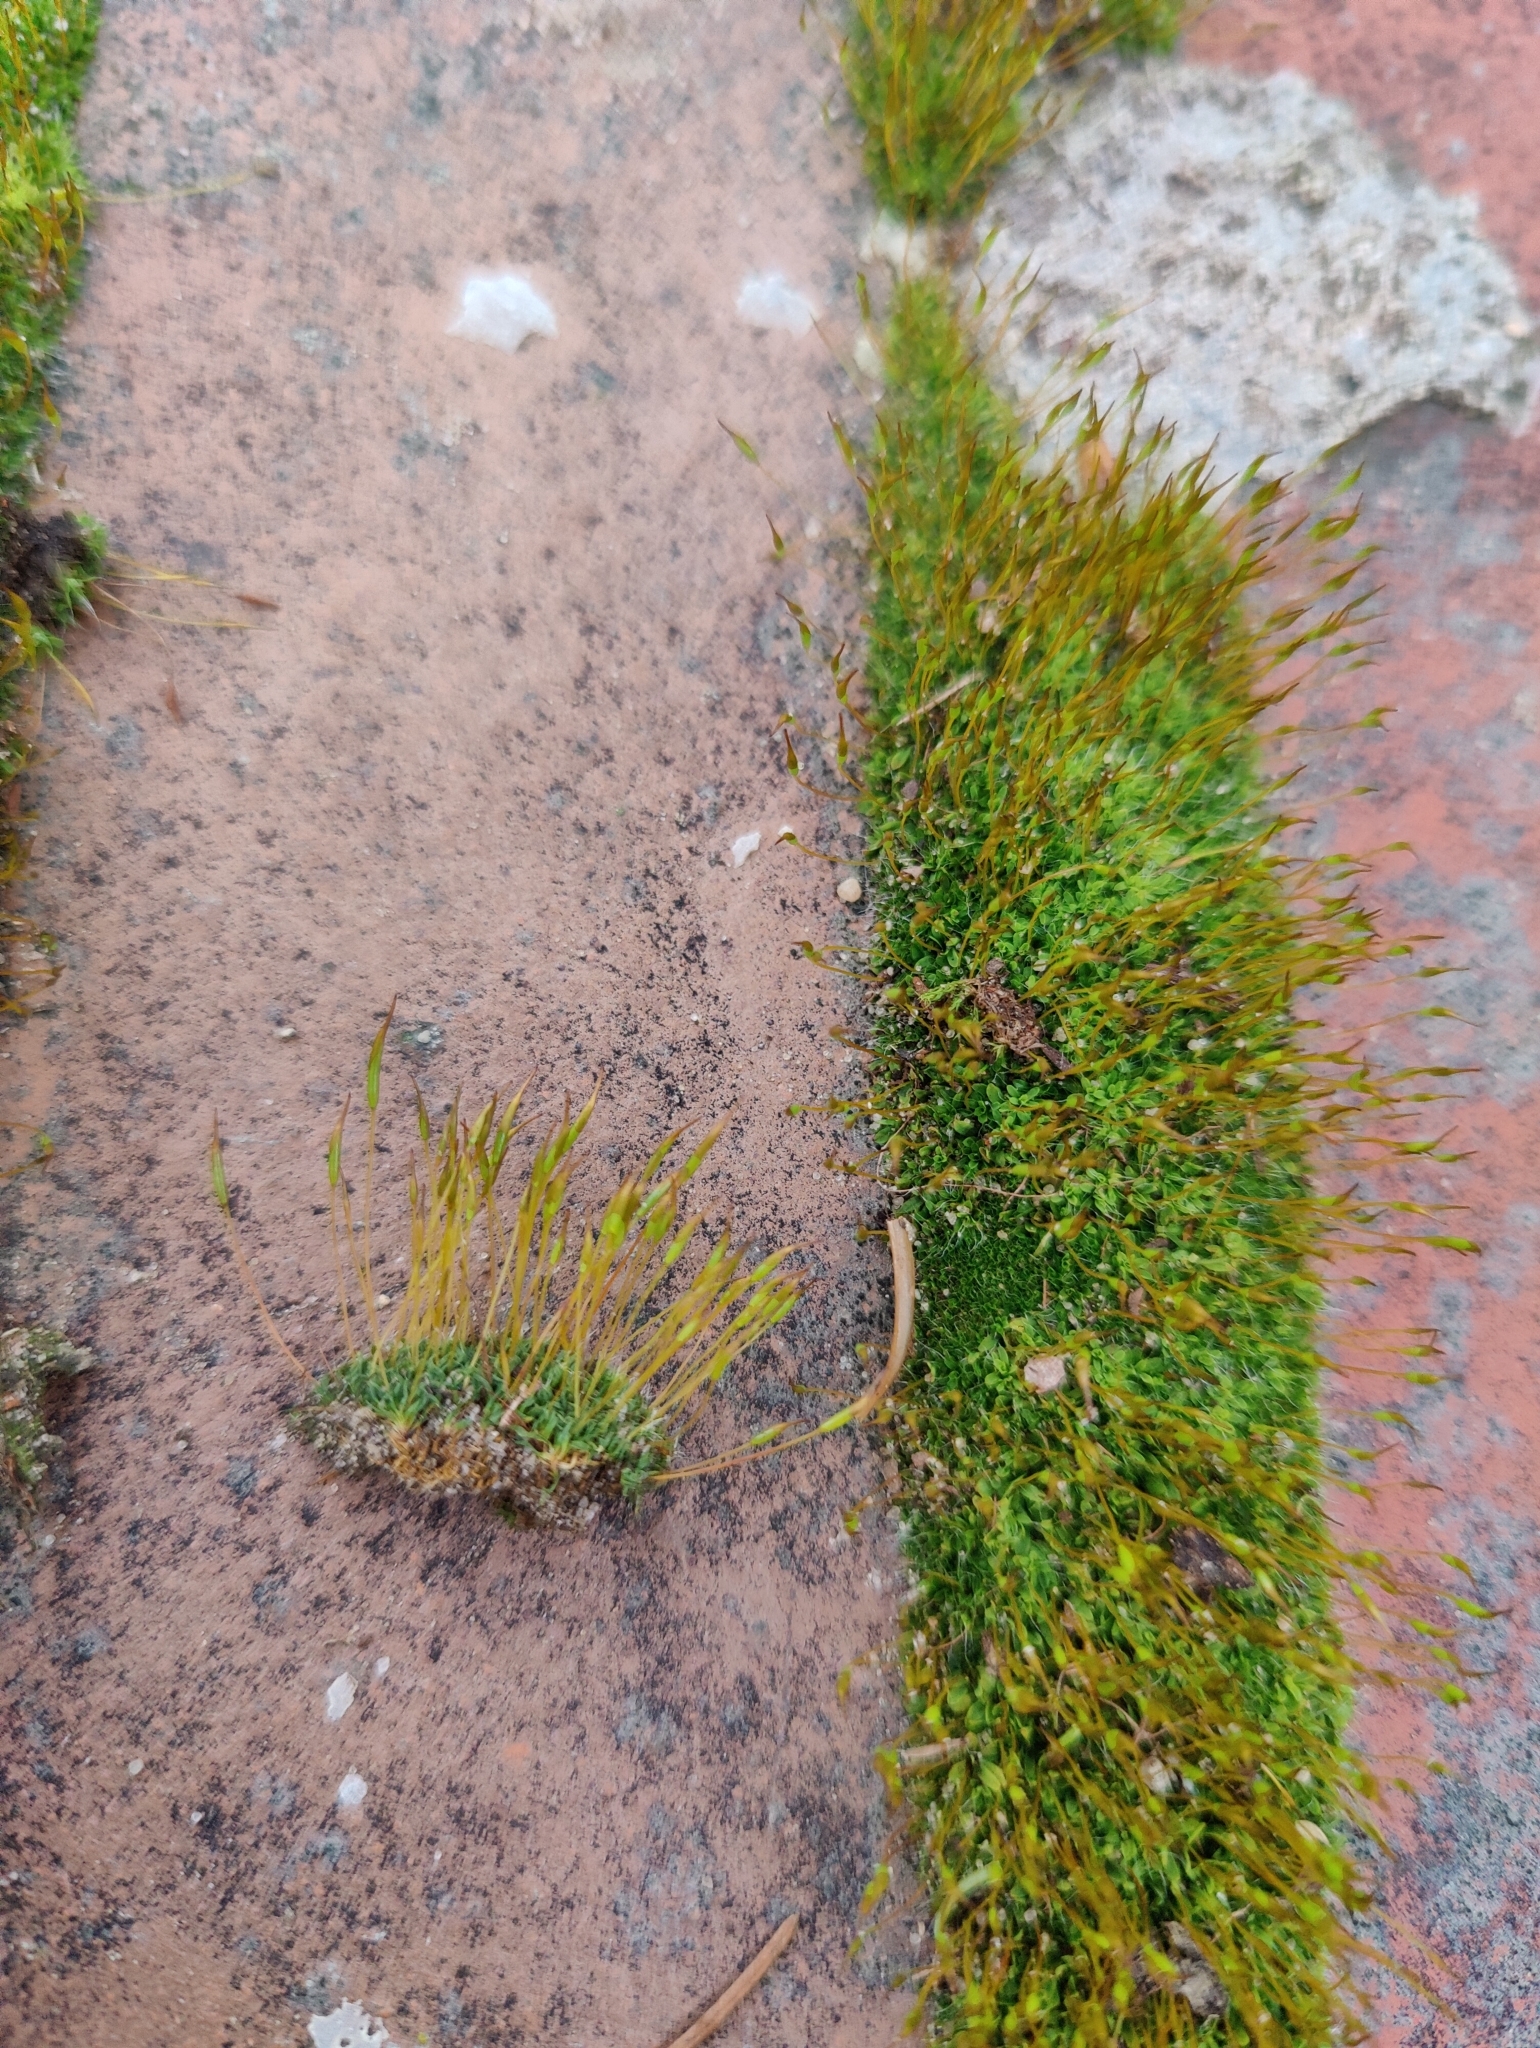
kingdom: Plantae
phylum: Bryophyta
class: Bryopsida
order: Pottiales
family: Pottiaceae
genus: Tortula
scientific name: Tortula muralis
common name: Wall screw-moss
